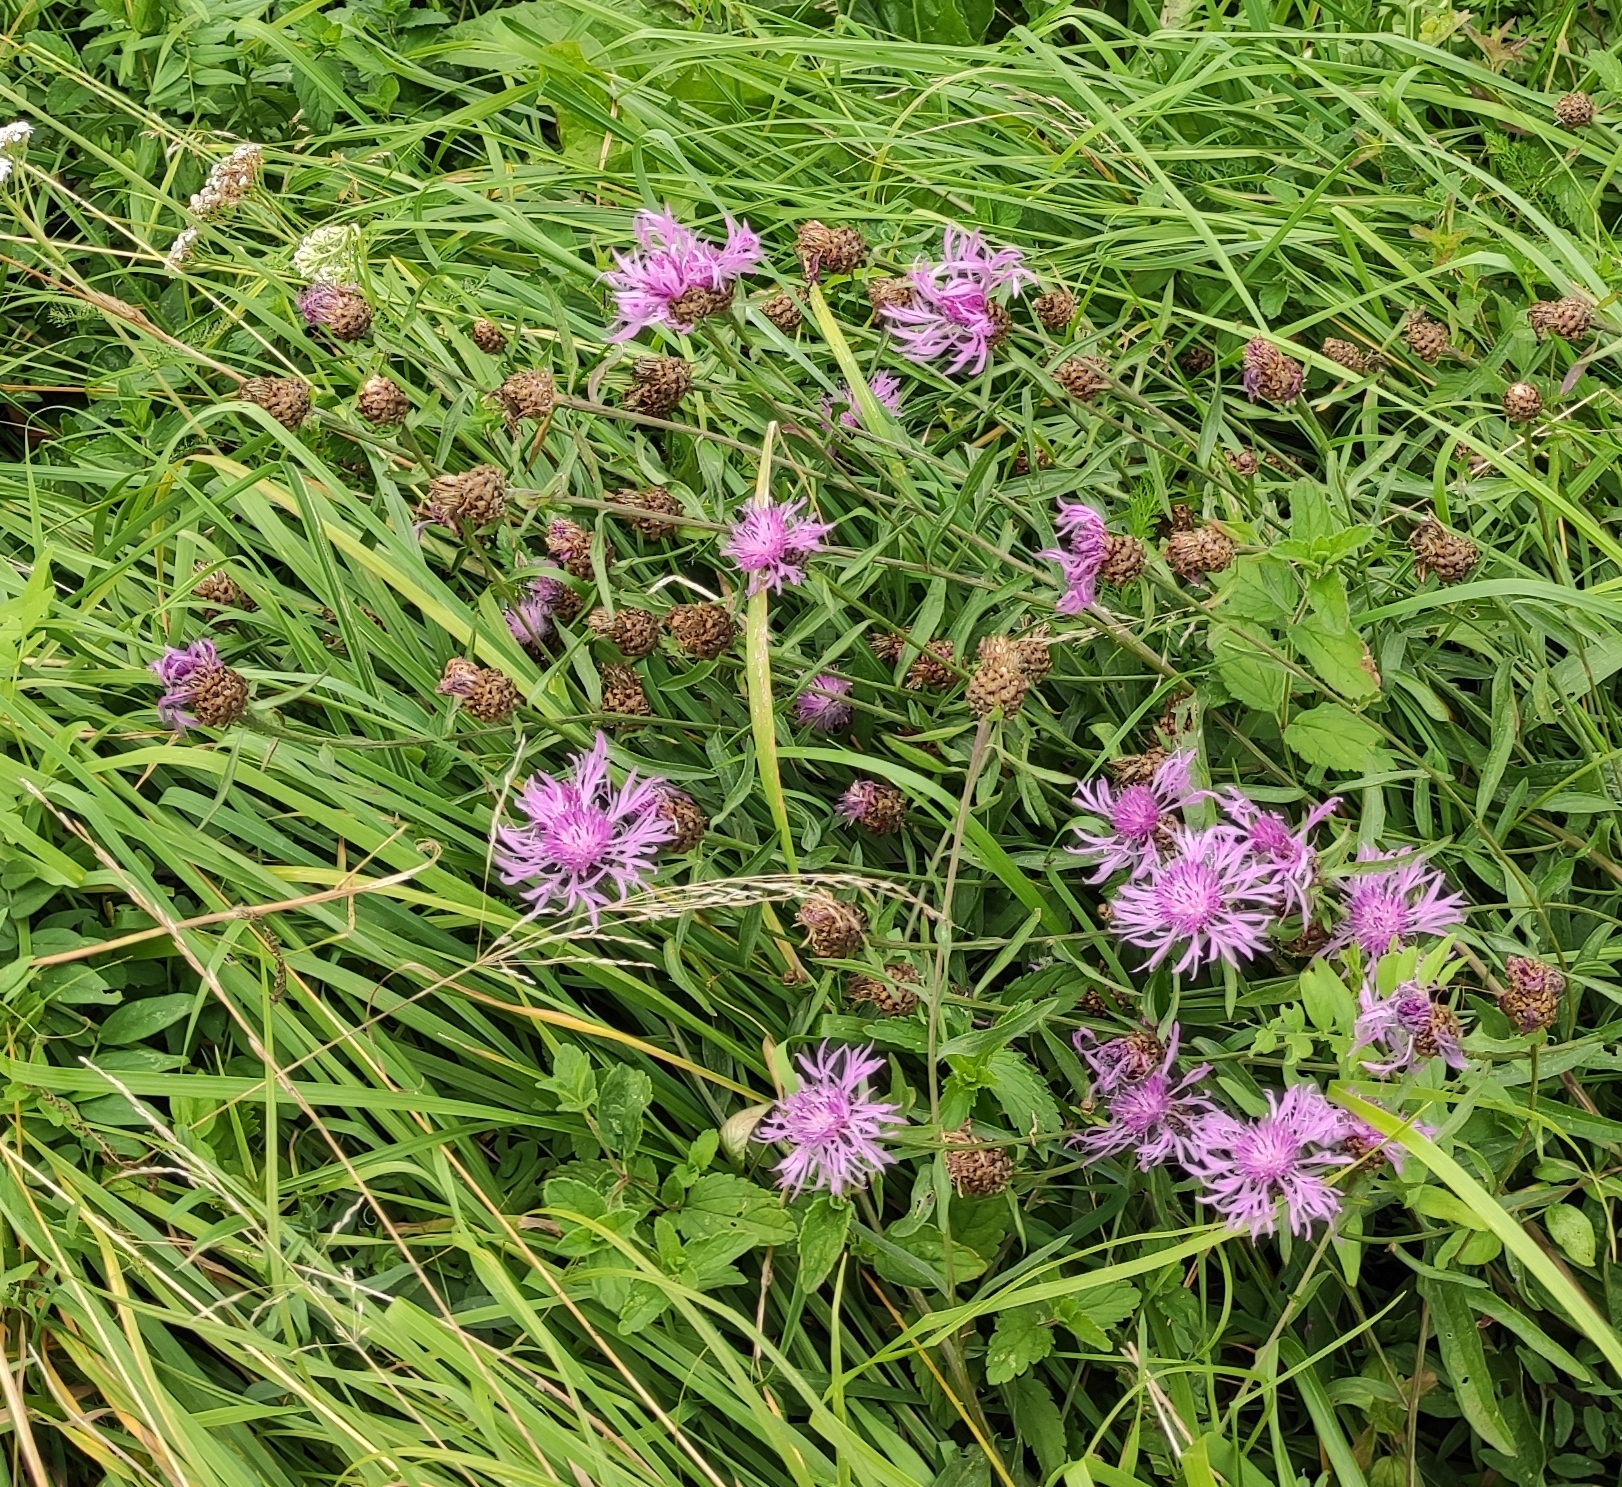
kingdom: Plantae
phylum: Tracheophyta
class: Magnoliopsida
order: Asterales
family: Asteraceae
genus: Centaurea
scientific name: Centaurea jacea
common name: Brown knapweed
